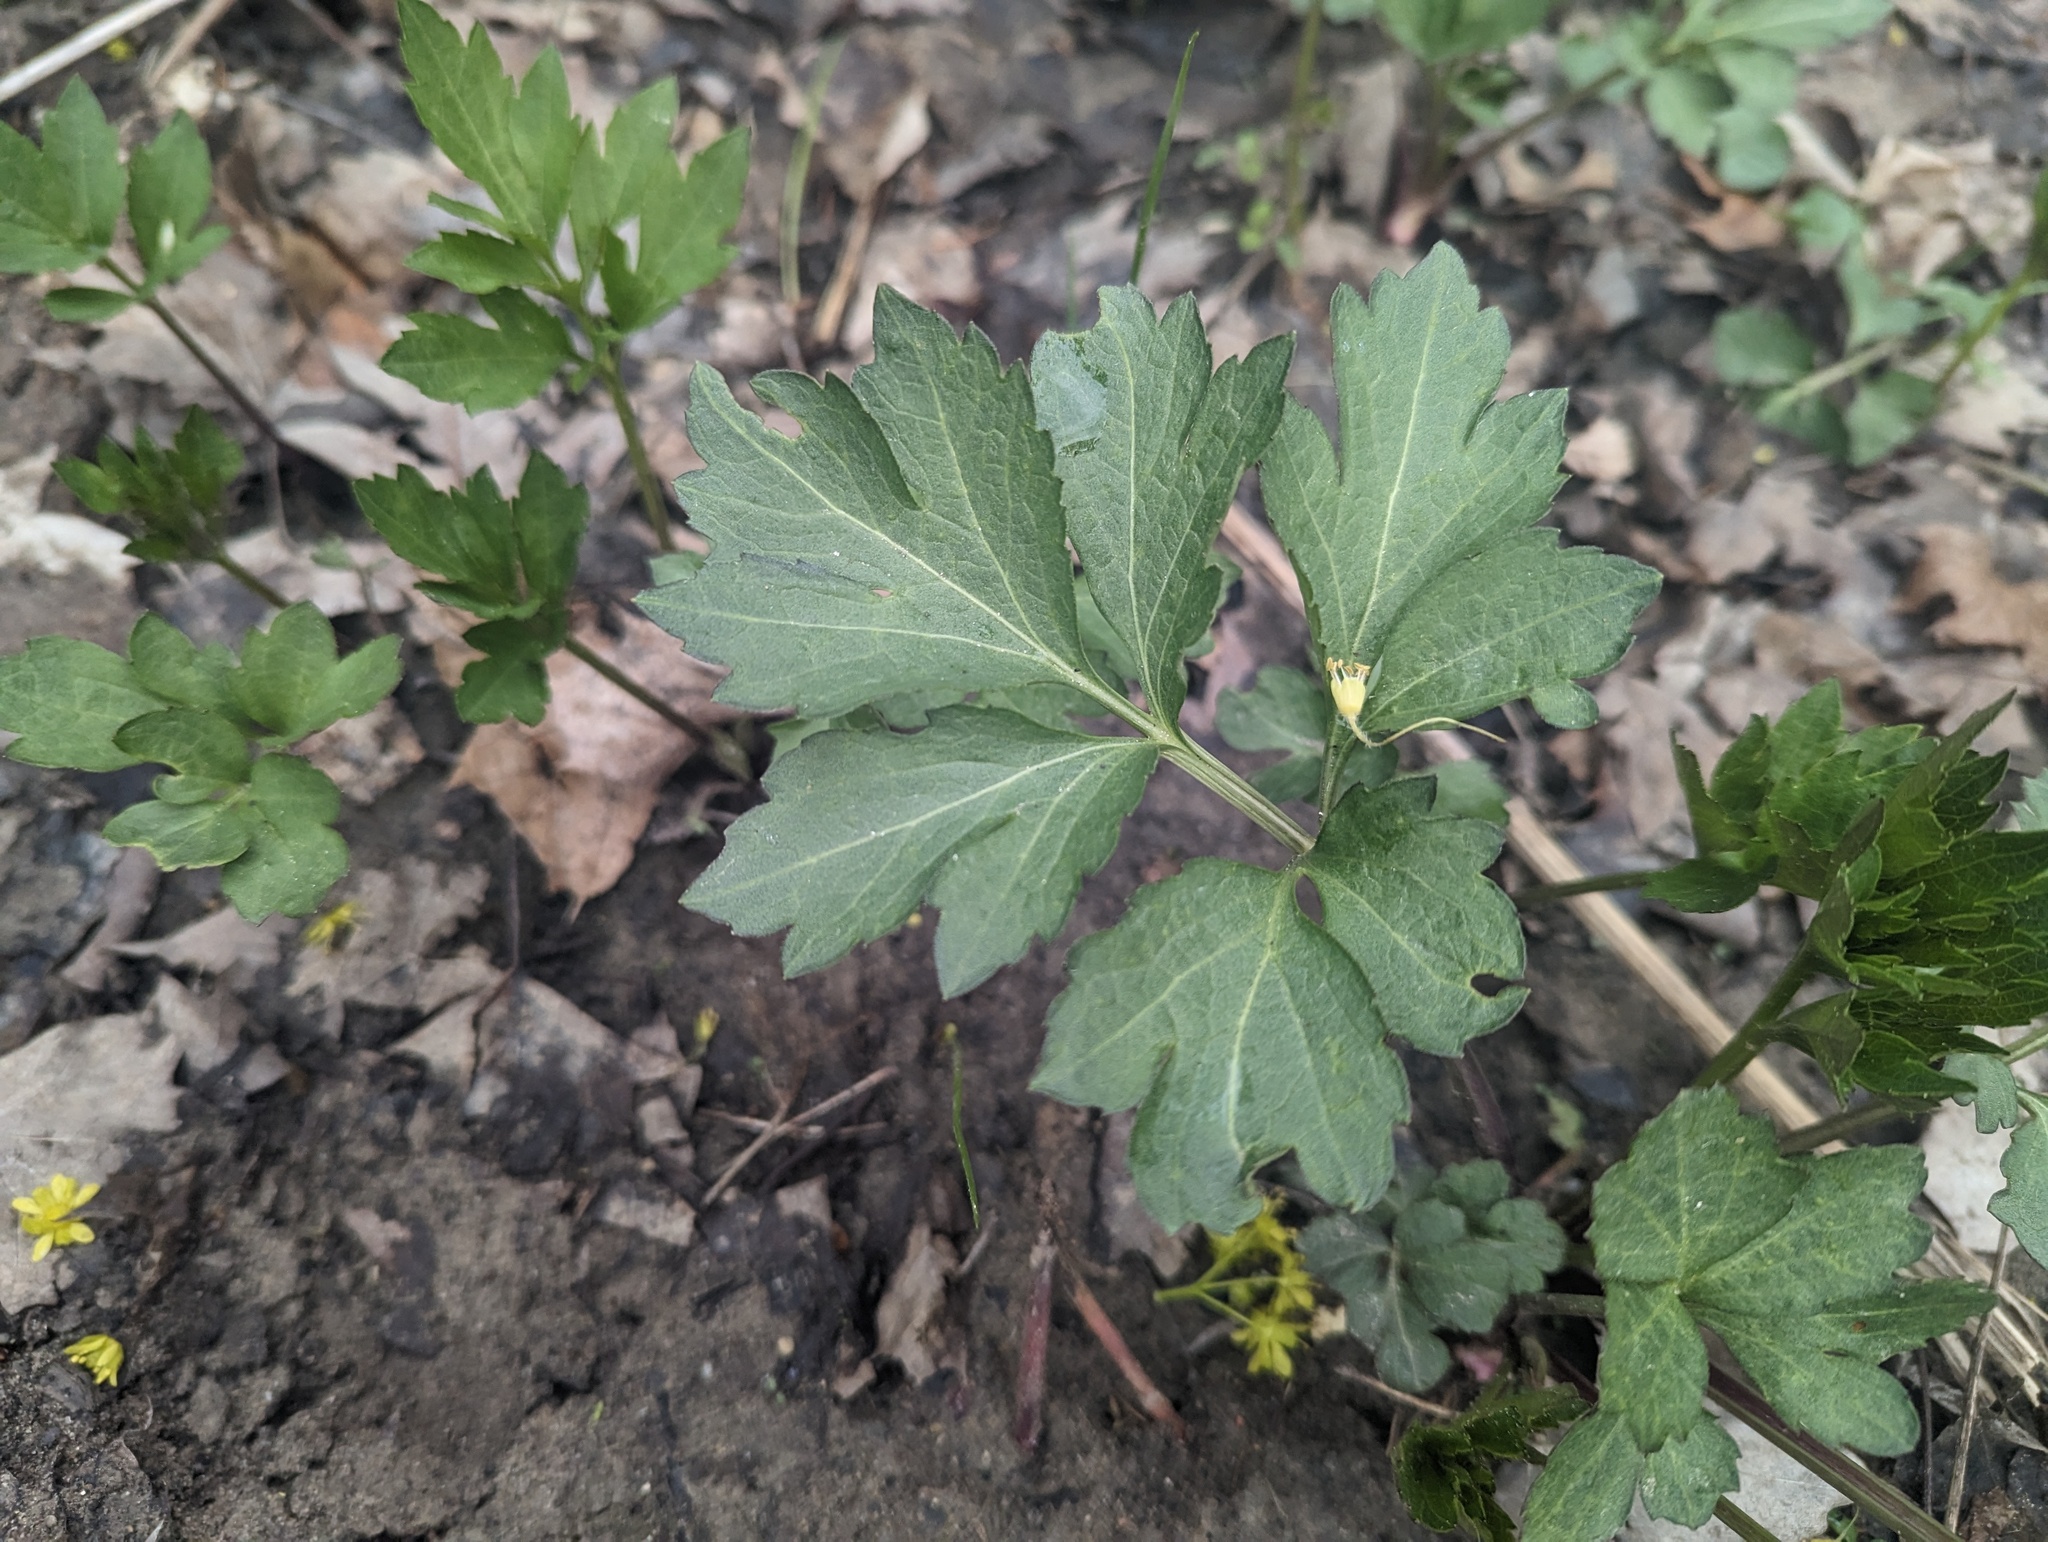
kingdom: Plantae
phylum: Tracheophyta
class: Magnoliopsida
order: Asterales
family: Asteraceae
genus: Rudbeckia
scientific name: Rudbeckia laciniata
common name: Coneflower
